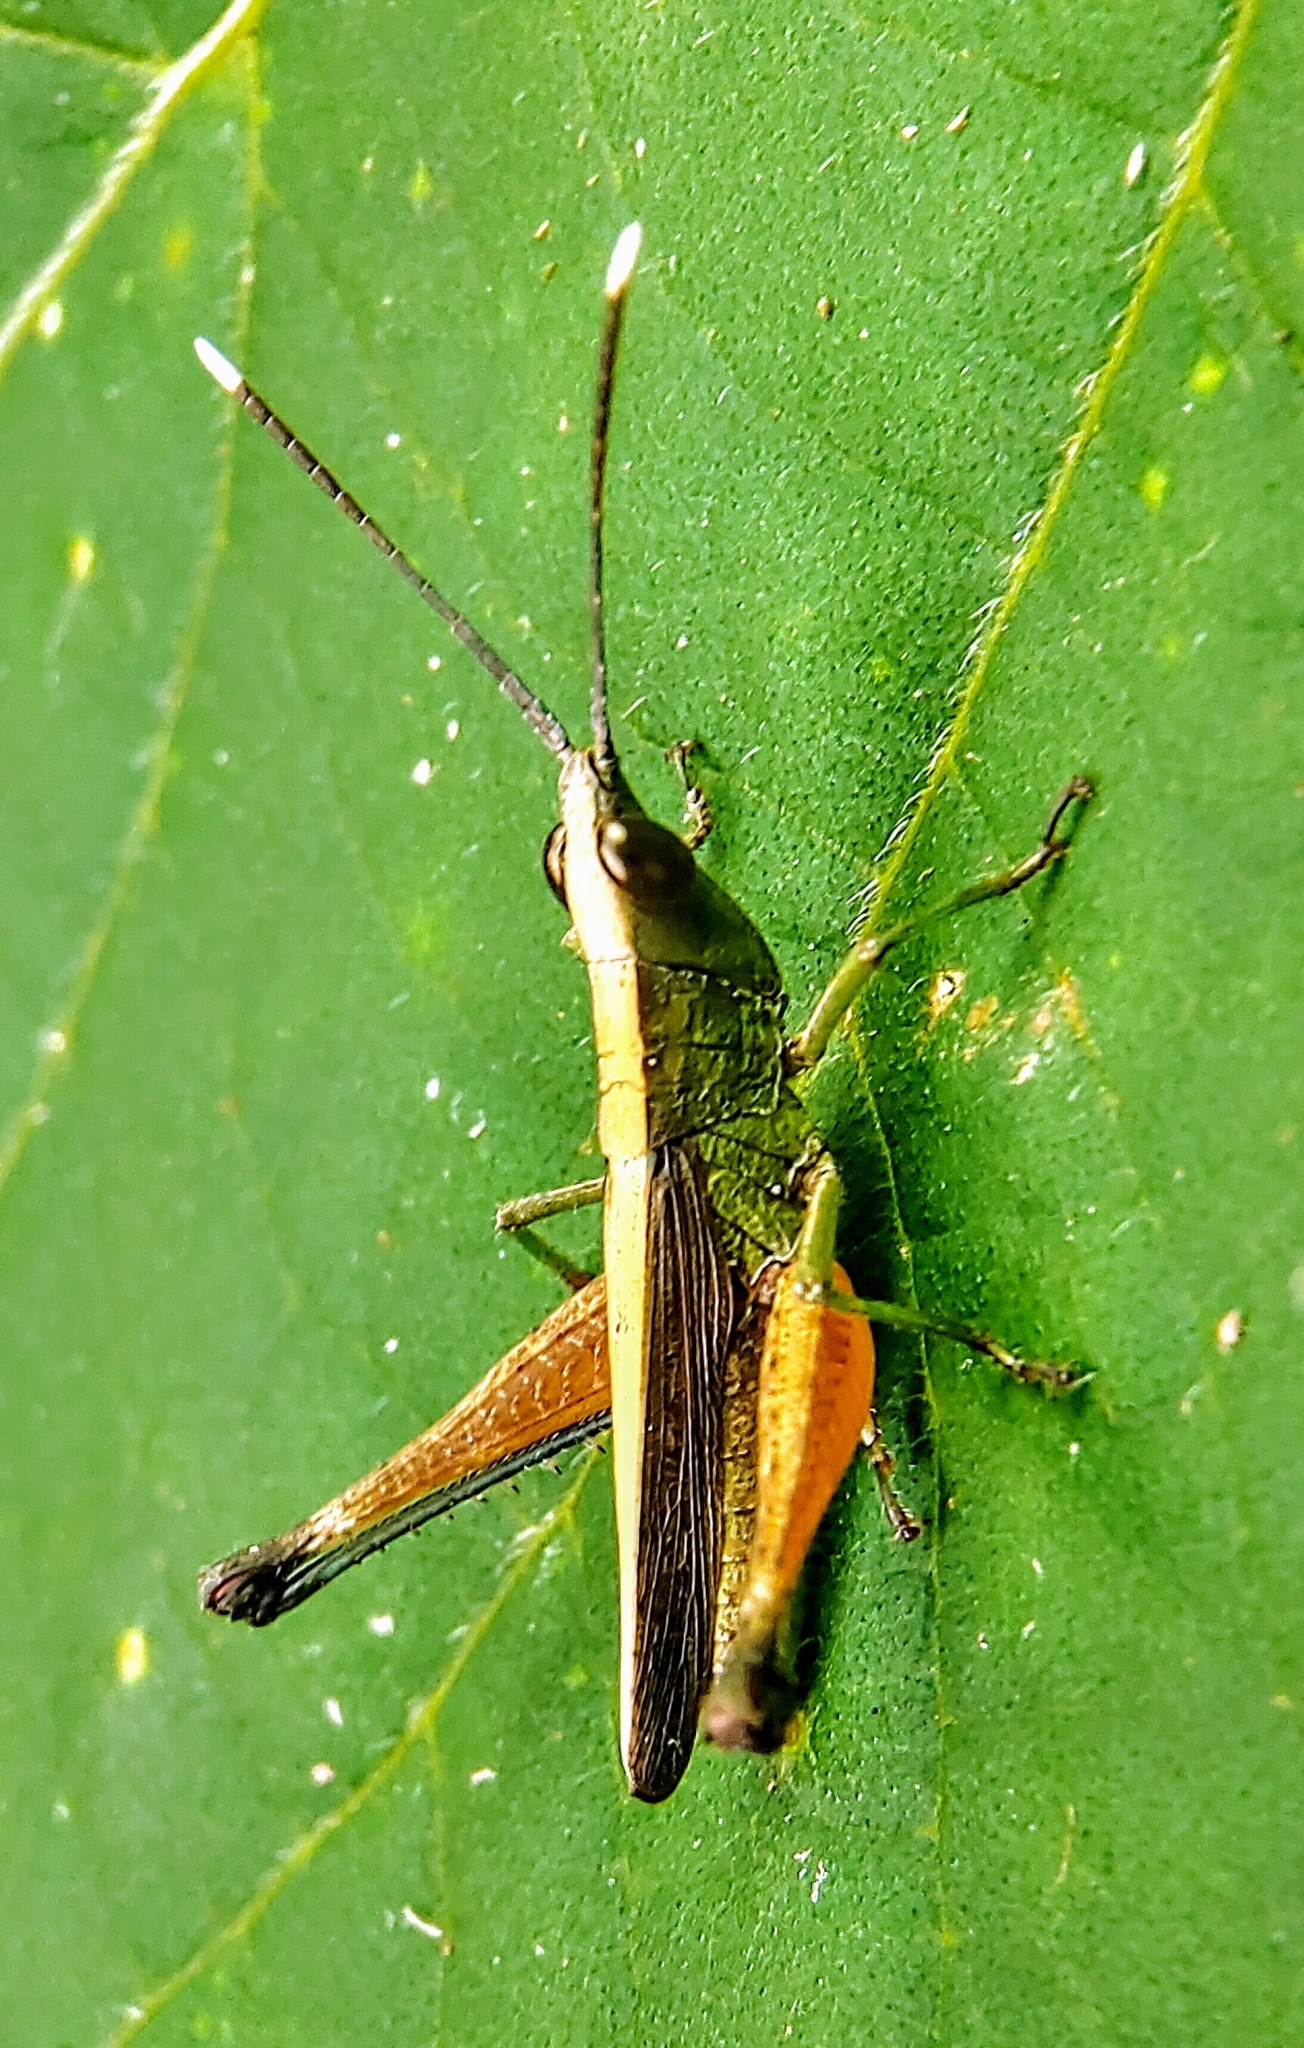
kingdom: Animalia
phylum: Arthropoda
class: Insecta
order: Orthoptera
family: Acrididae
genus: Phlaeoba
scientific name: Phlaeoba antennata
